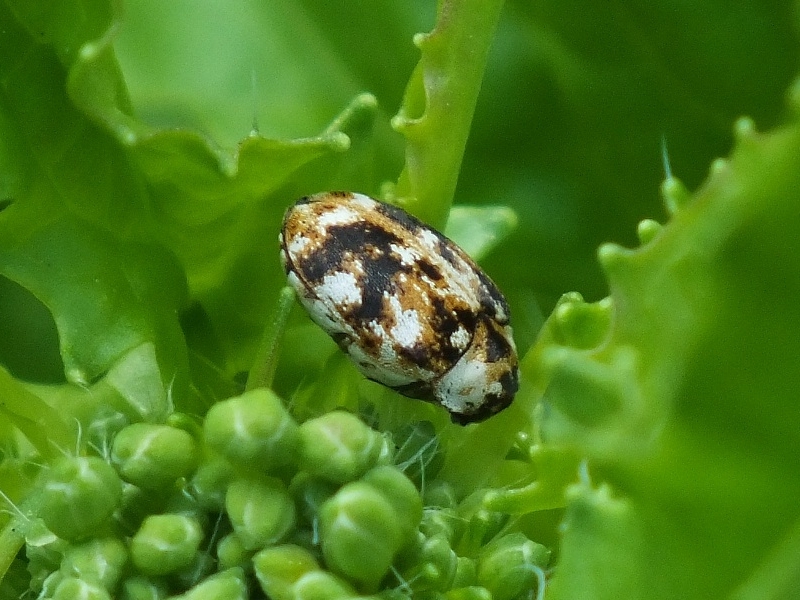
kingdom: Animalia
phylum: Arthropoda
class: Insecta
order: Coleoptera
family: Dermestidae
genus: Anthrenus
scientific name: Anthrenus picturatus
